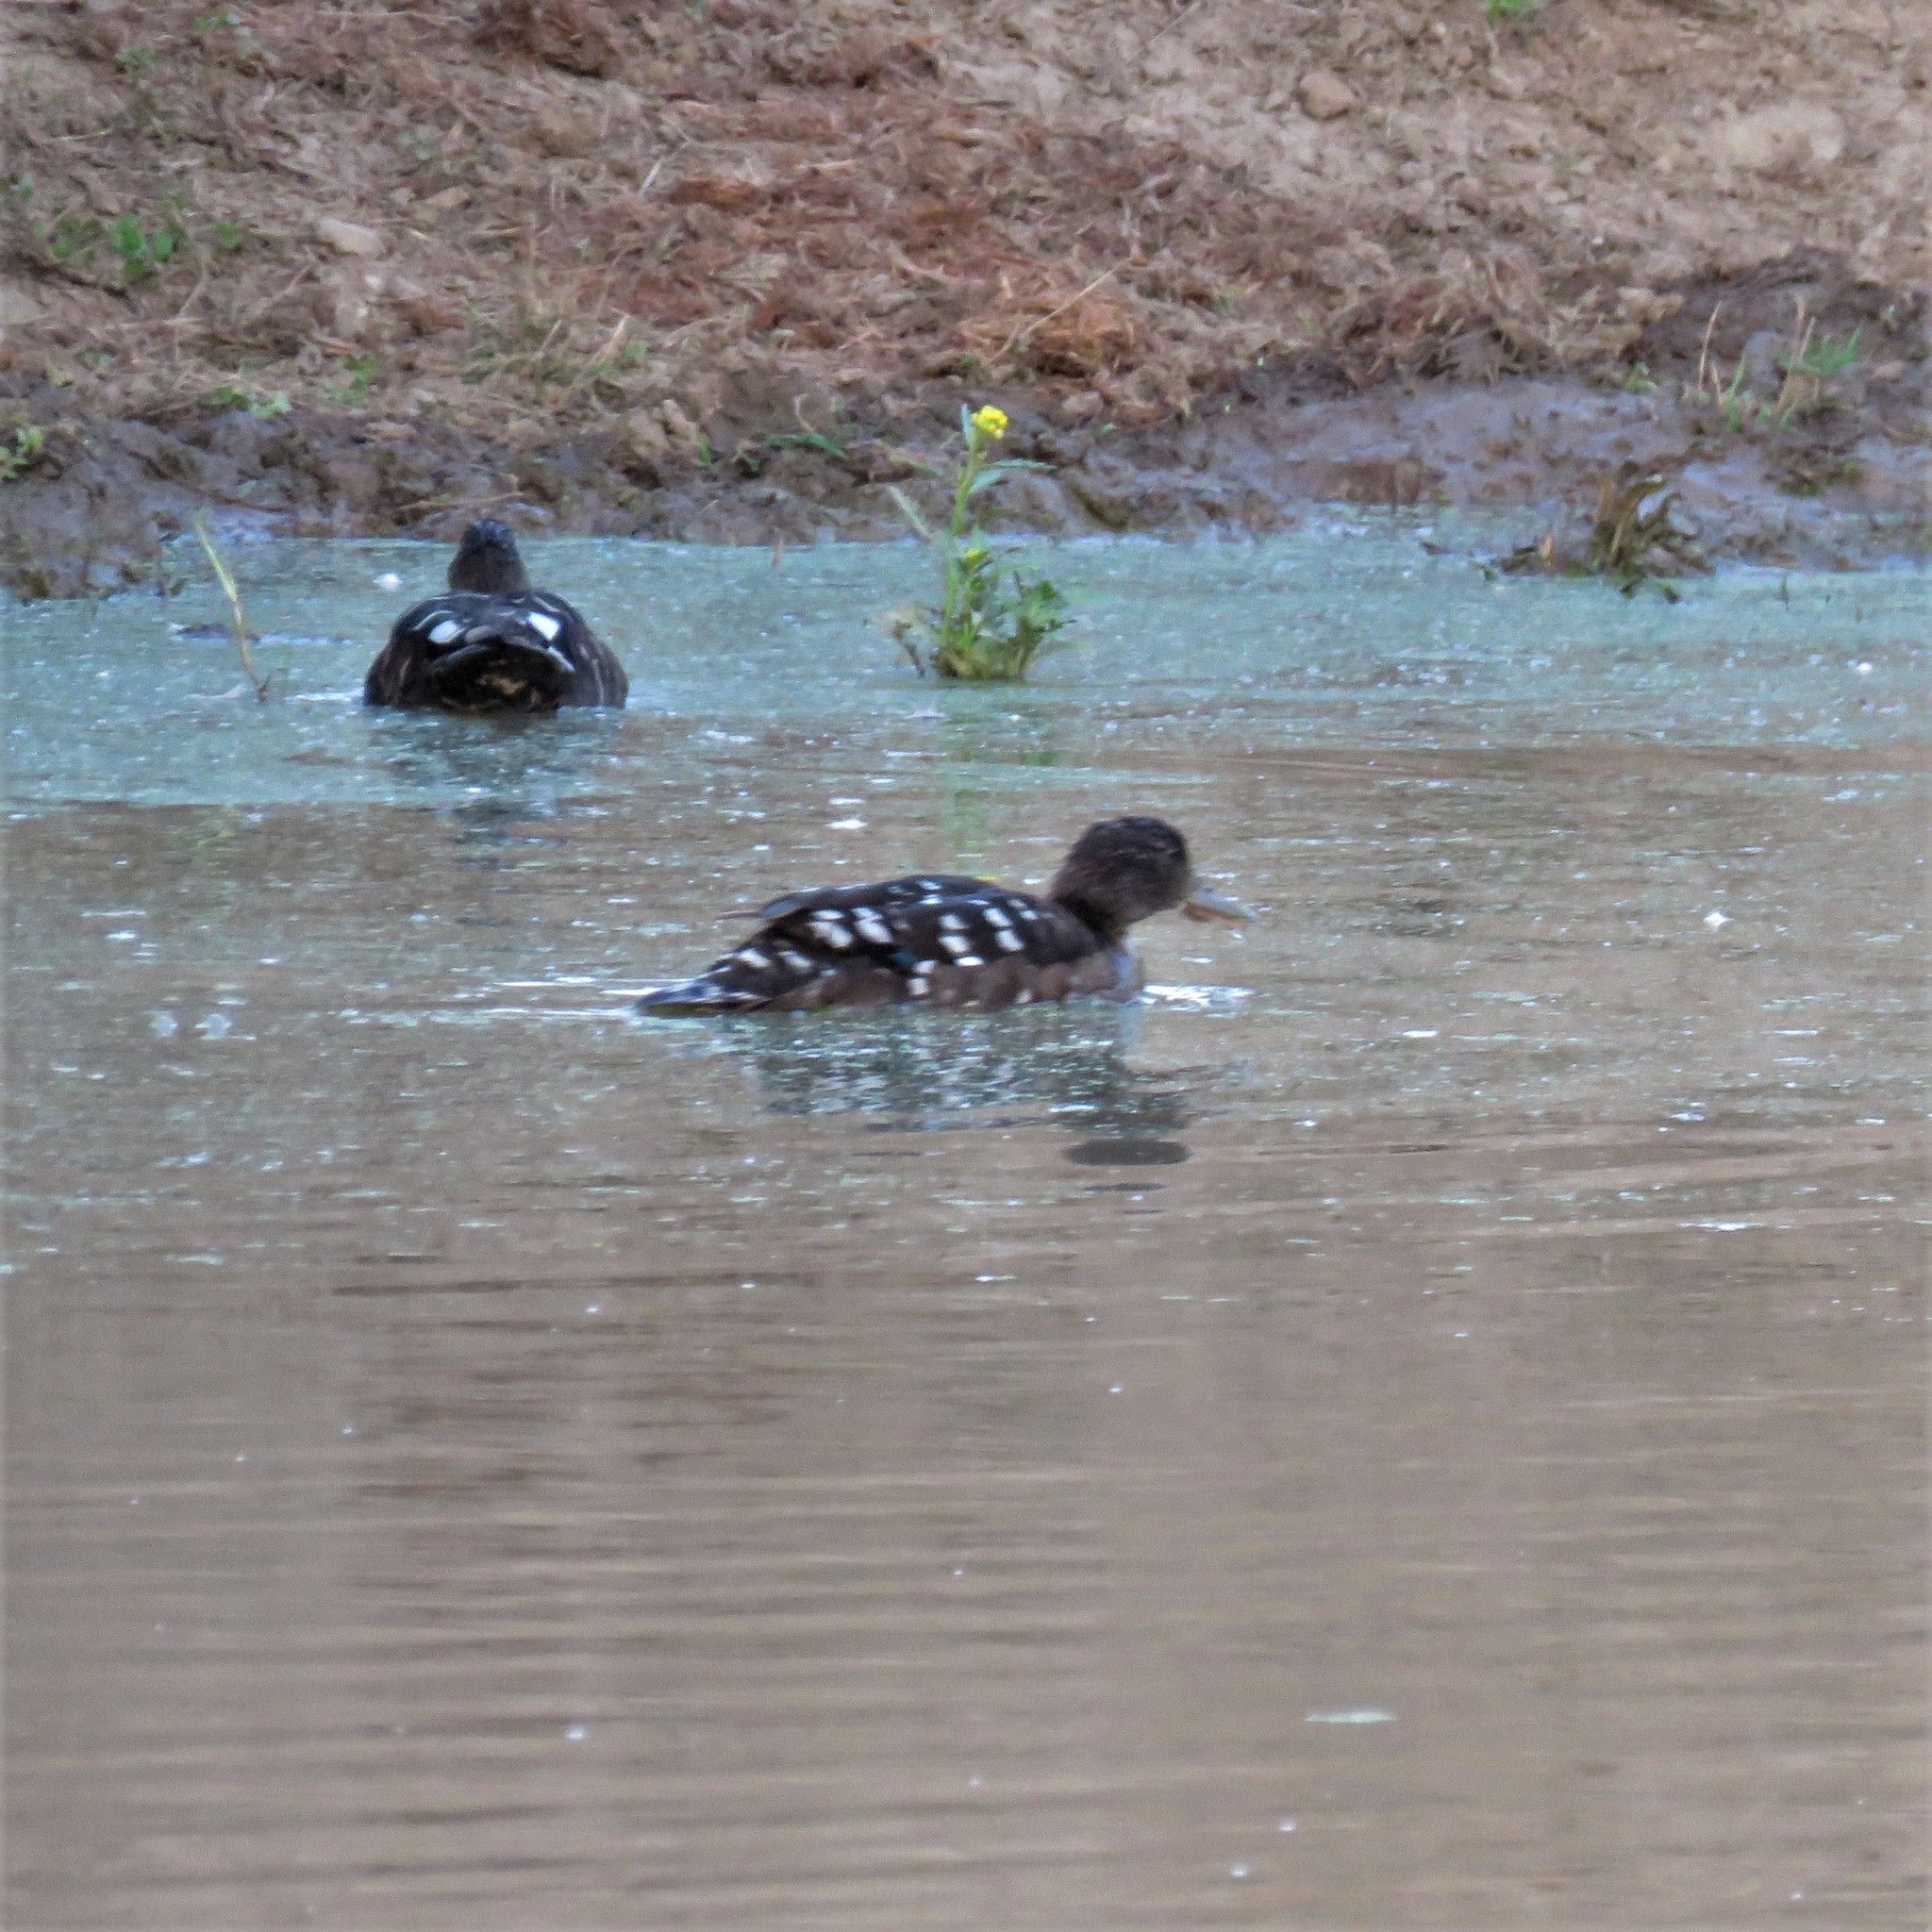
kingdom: Animalia
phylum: Chordata
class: Aves
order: Anseriformes
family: Anatidae
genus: Anas
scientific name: Anas sparsa
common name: African black duck
